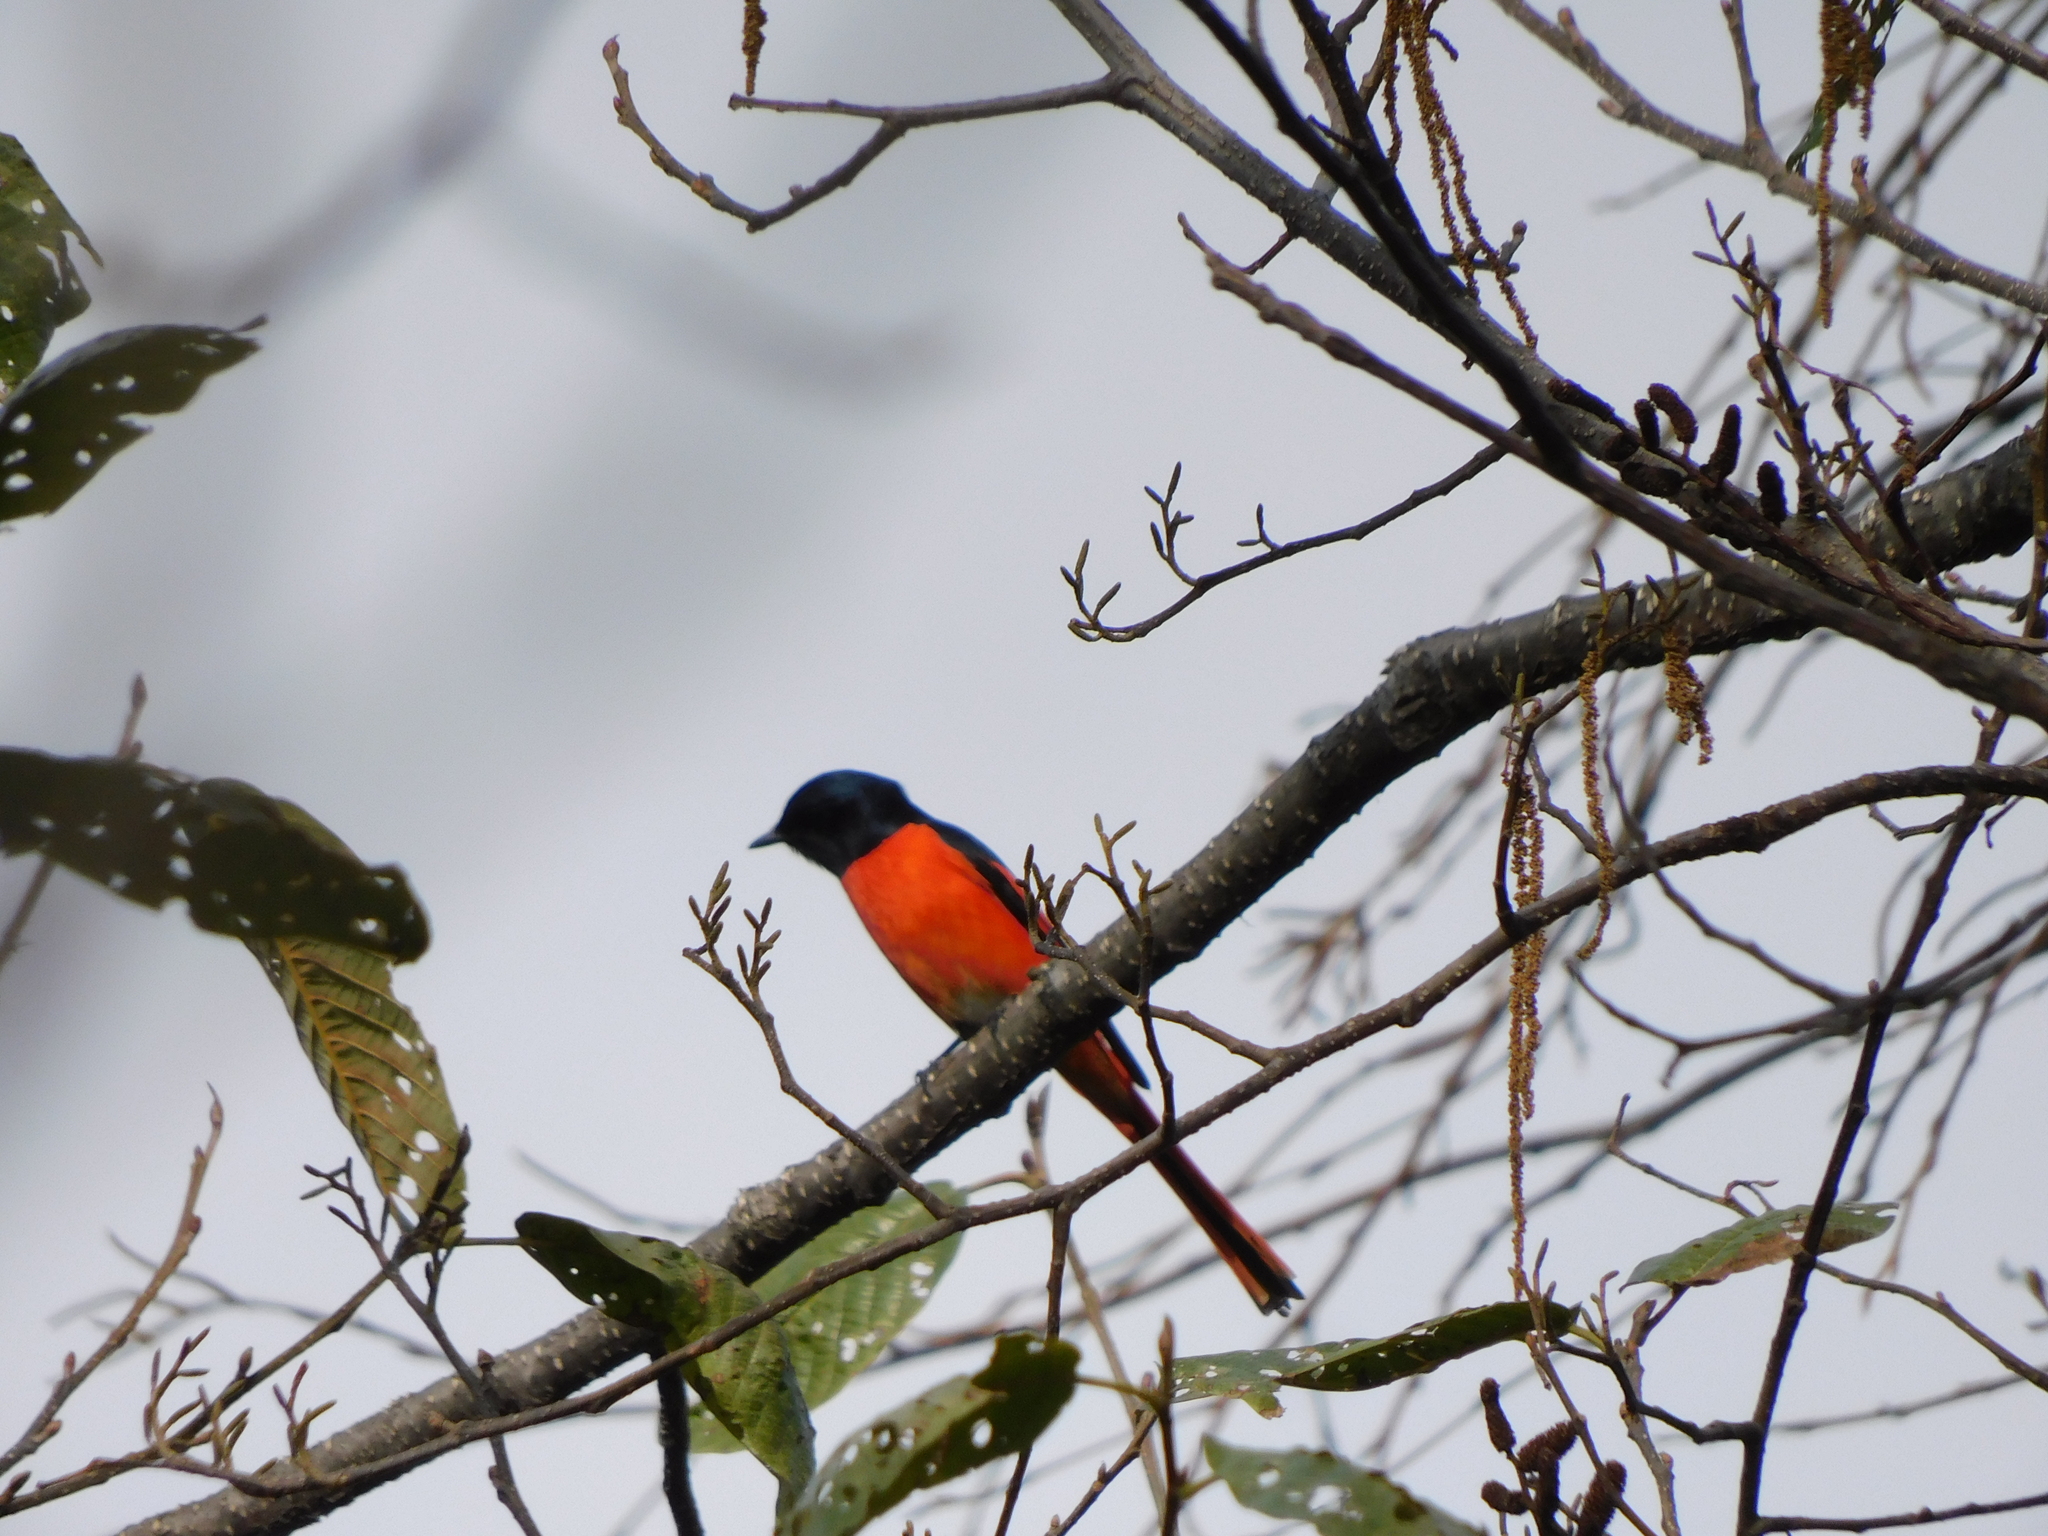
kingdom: Animalia
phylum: Chordata
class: Aves
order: Passeriformes
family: Campephagidae
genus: Pericrocotus
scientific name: Pericrocotus ethologus
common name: Long-tailed minivet
